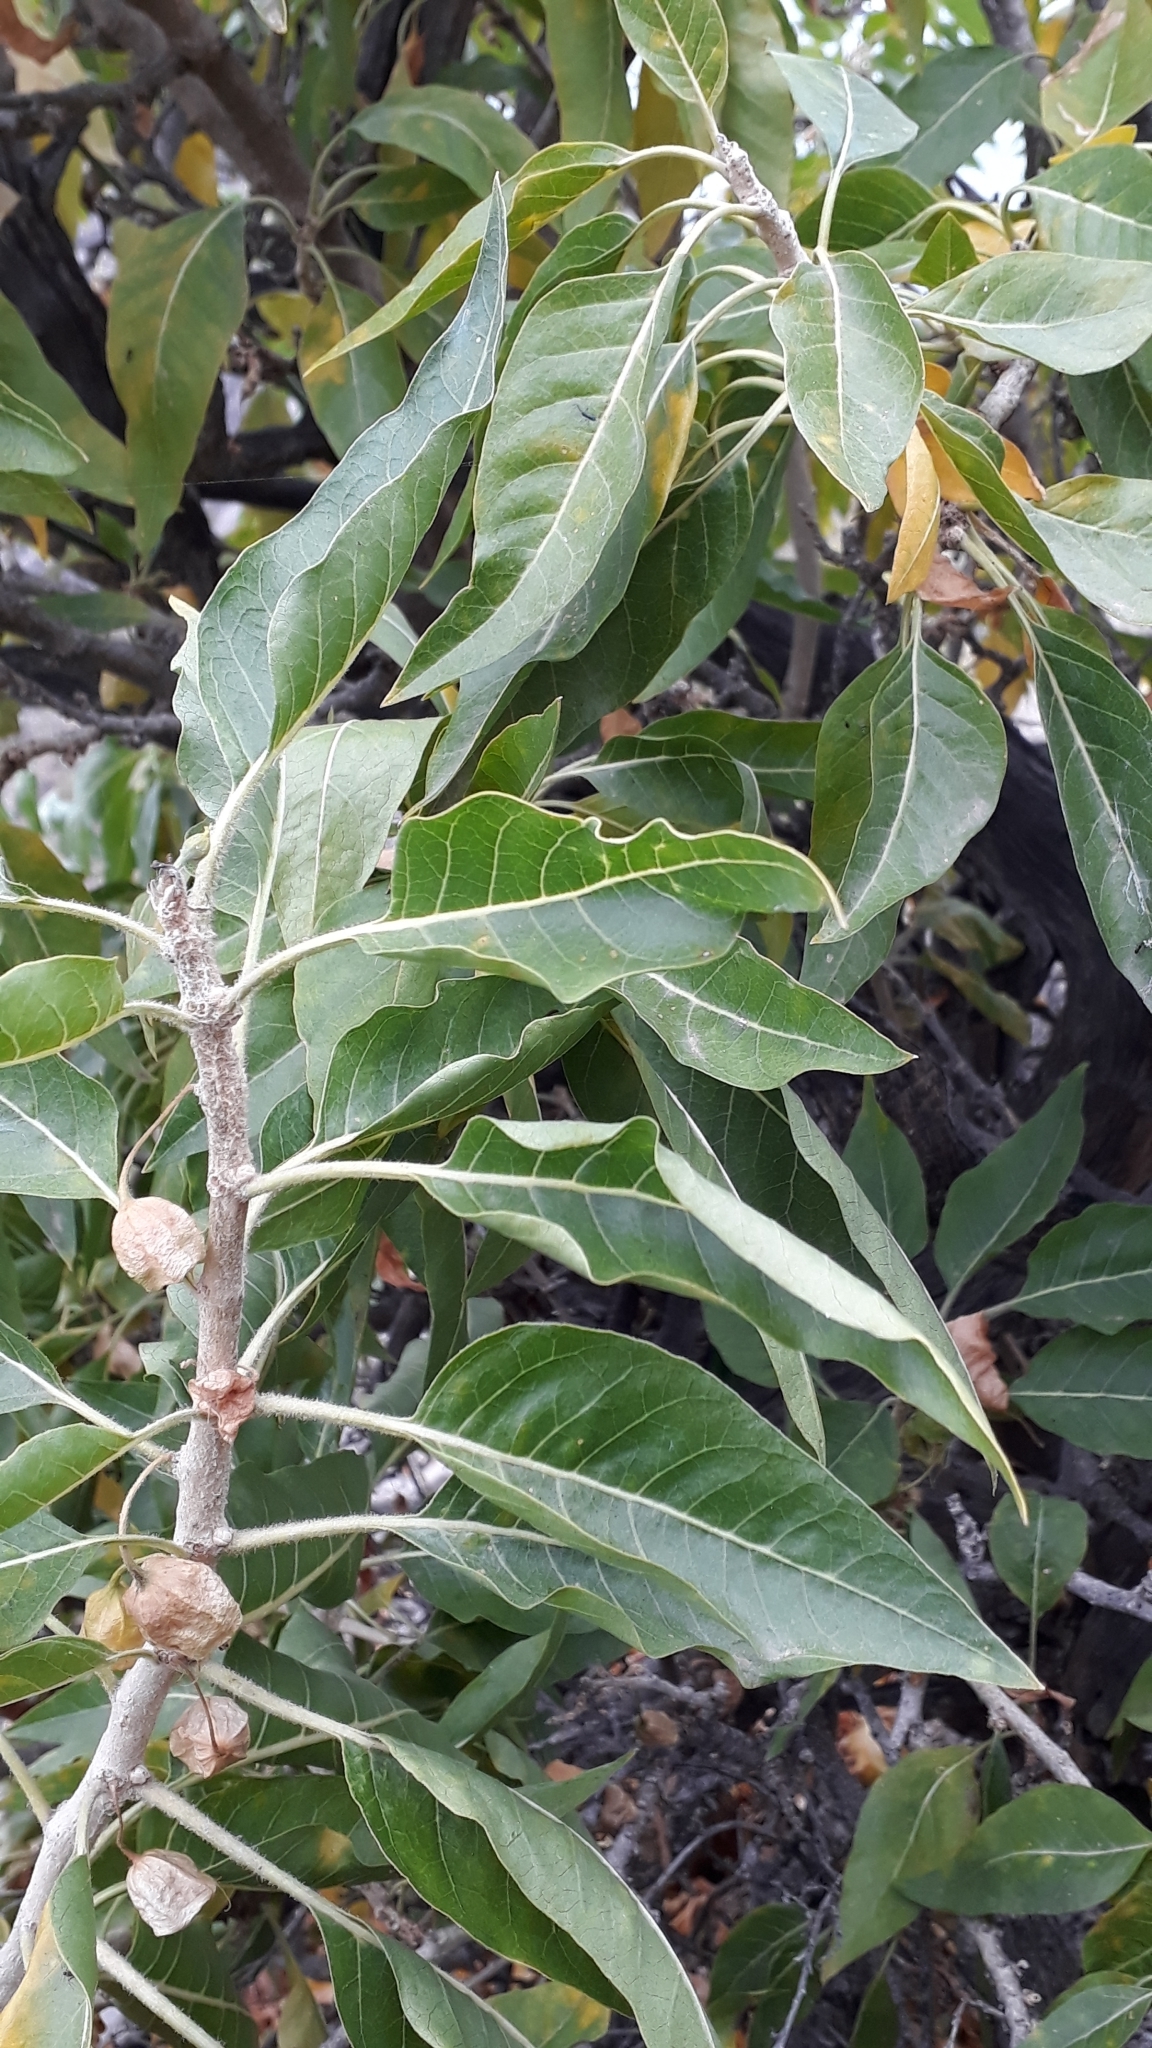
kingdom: Plantae
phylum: Tracheophyta
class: Magnoliopsida
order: Solanales
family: Solanaceae
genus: Withania
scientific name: Withania aristata
